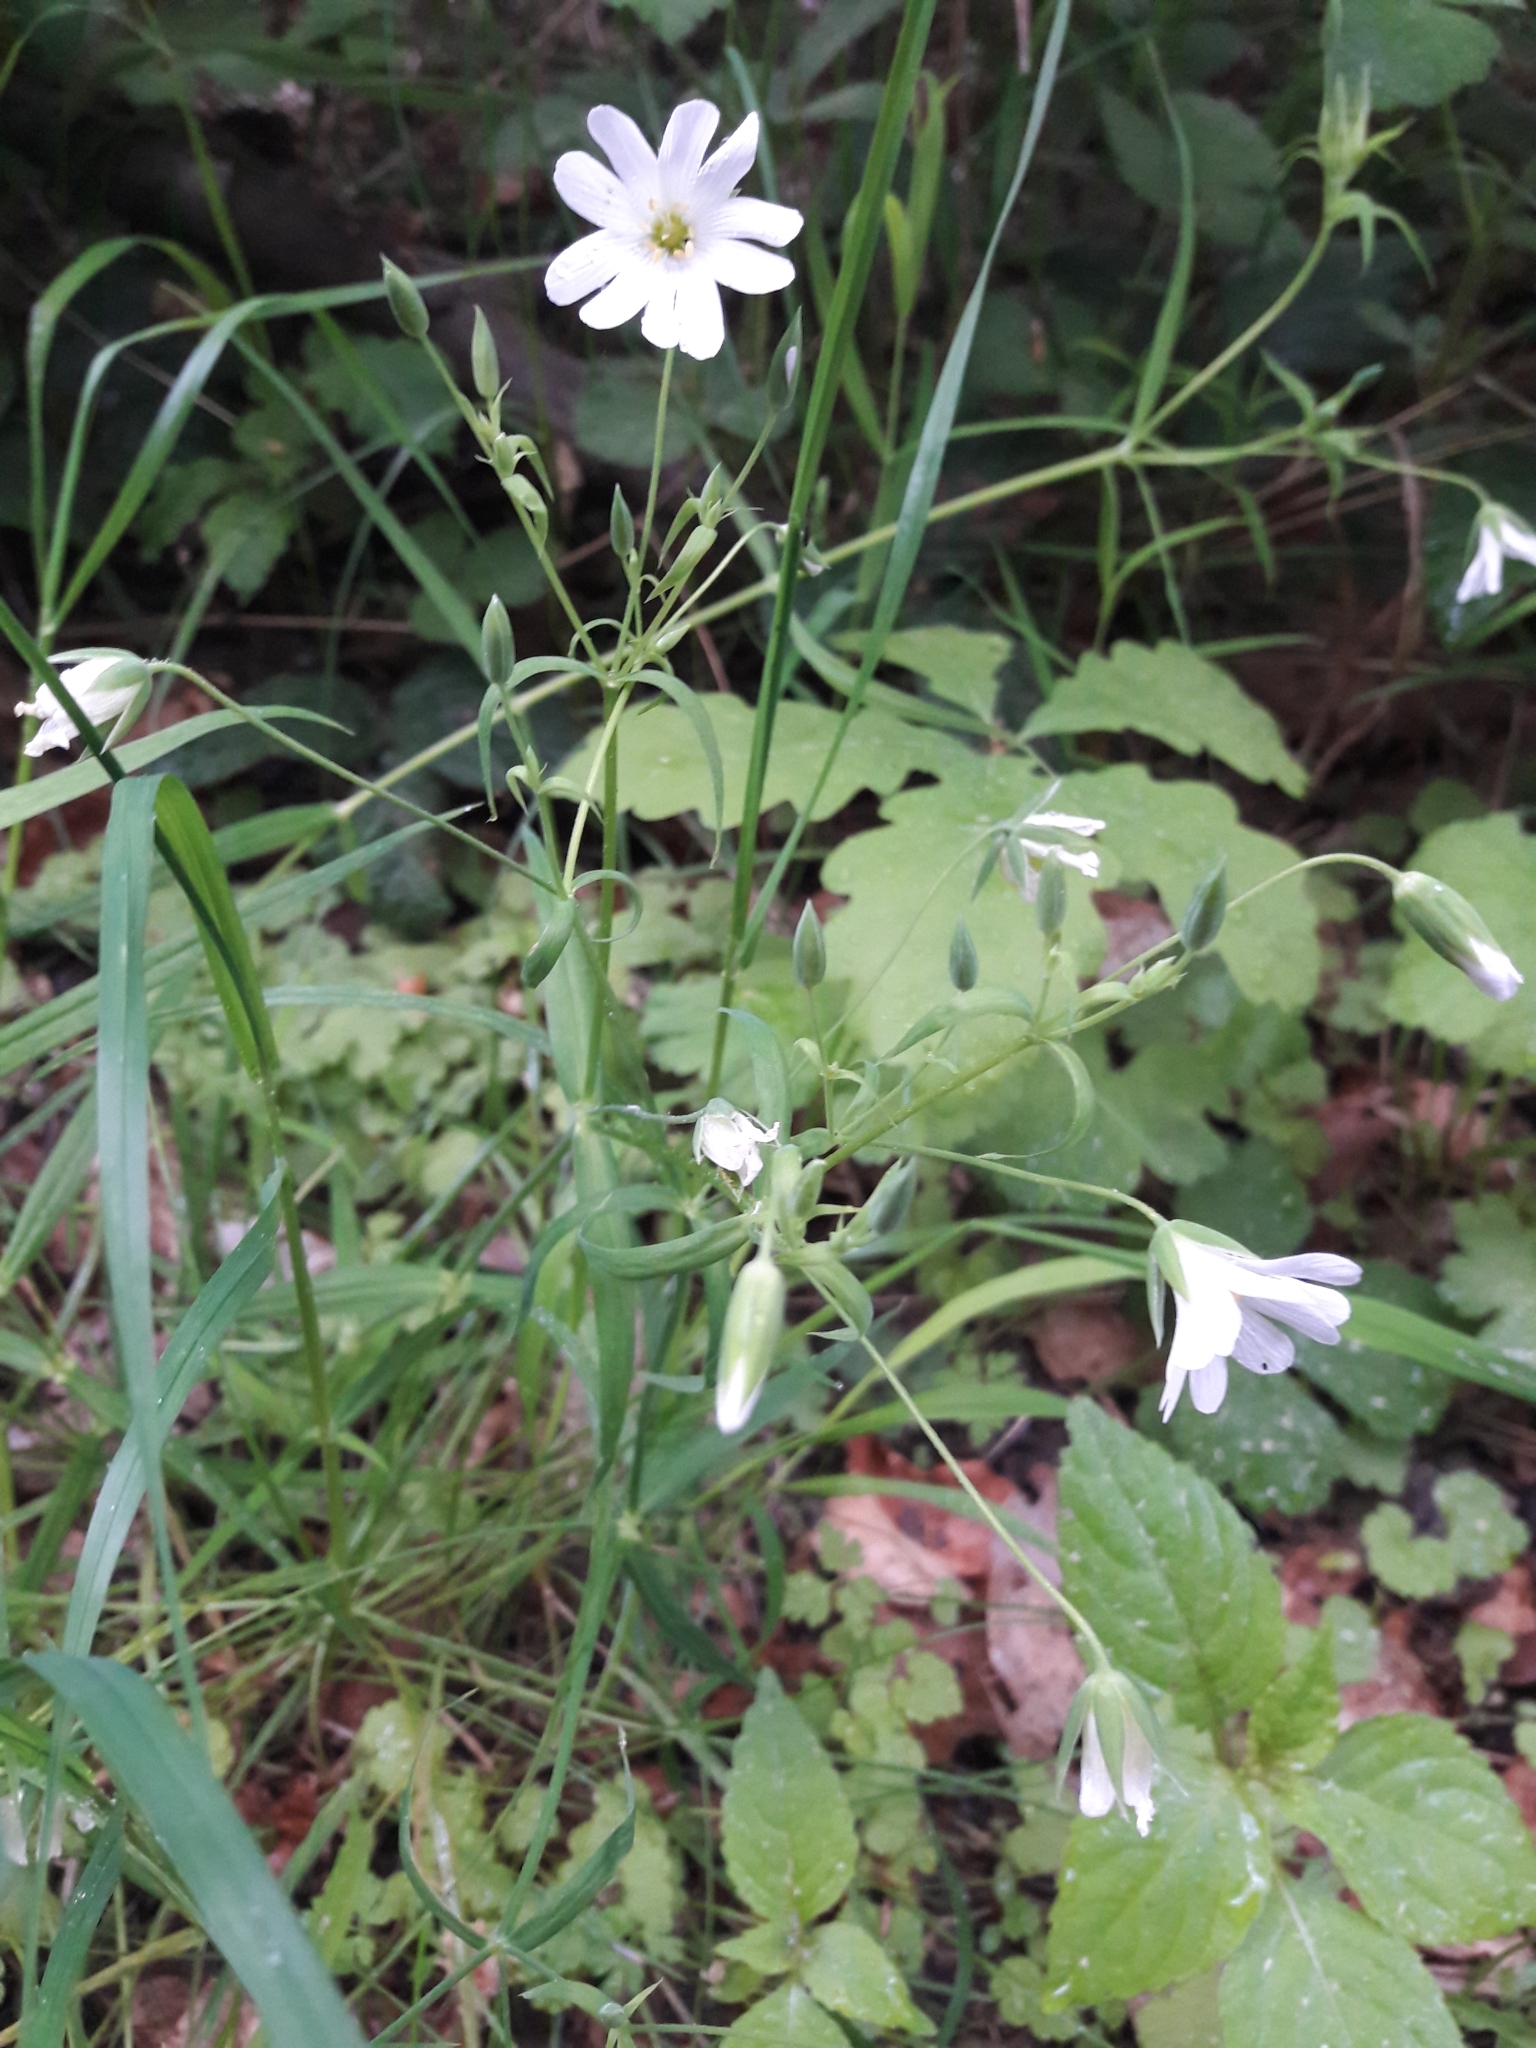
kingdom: Plantae
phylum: Tracheophyta
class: Magnoliopsida
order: Caryophyllales
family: Caryophyllaceae
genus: Rabelera
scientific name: Rabelera holostea
